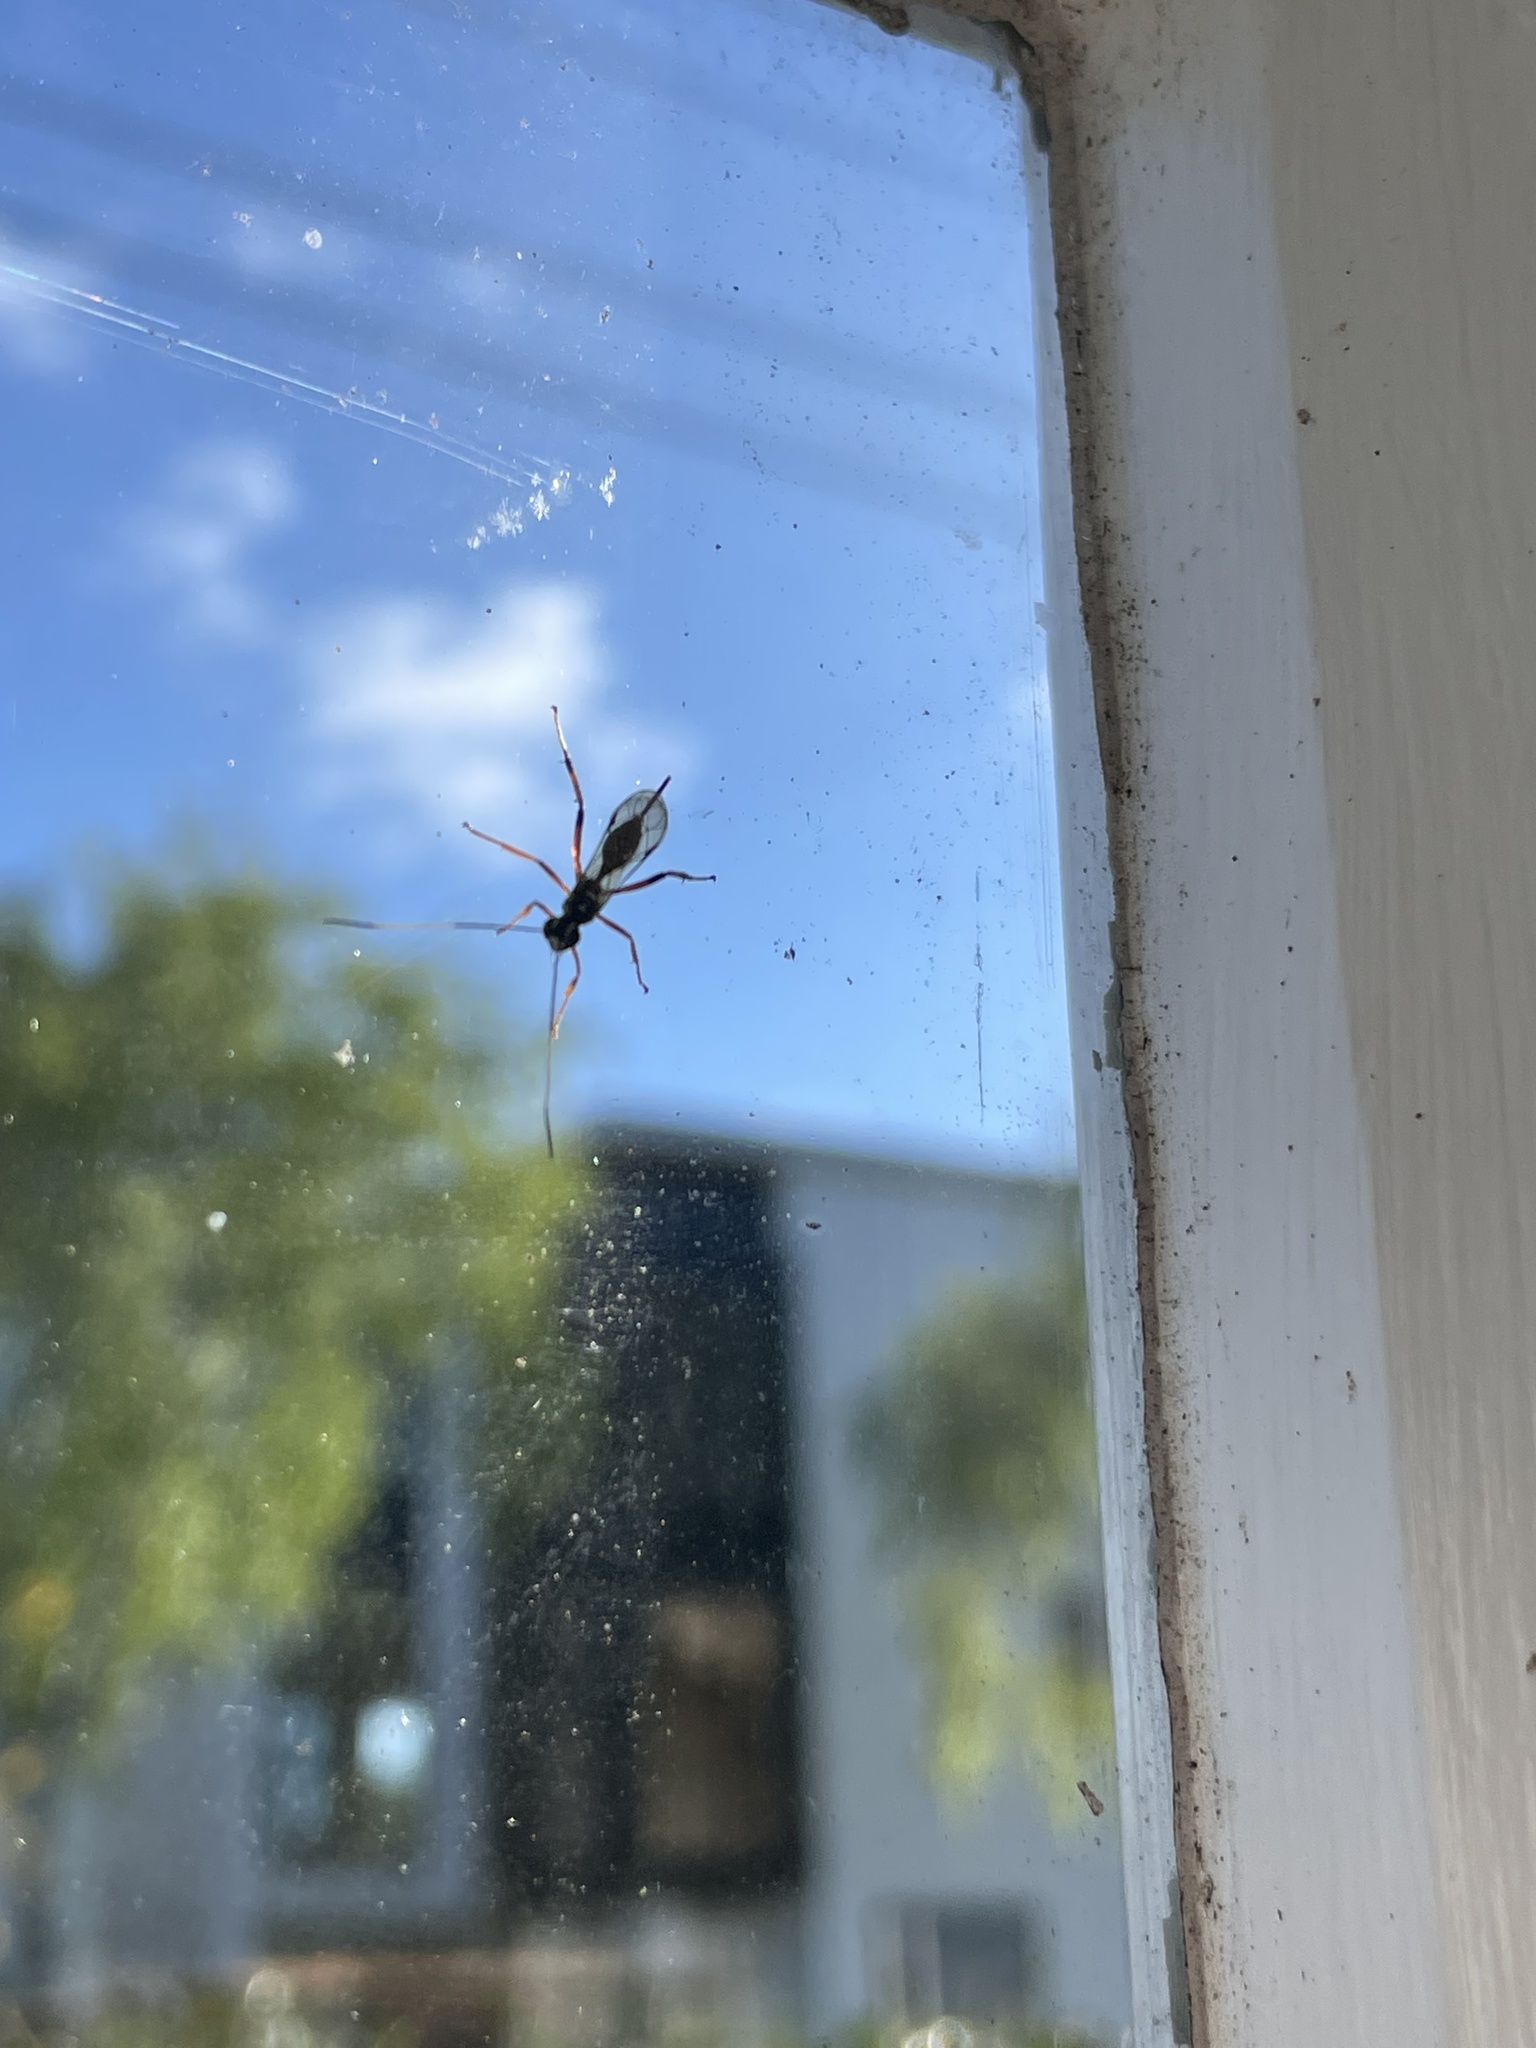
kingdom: Animalia
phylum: Arthropoda
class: Insecta
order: Hymenoptera
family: Ichneumonidae
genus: Xanthocryptus
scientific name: Xanthocryptus novozealandicus
